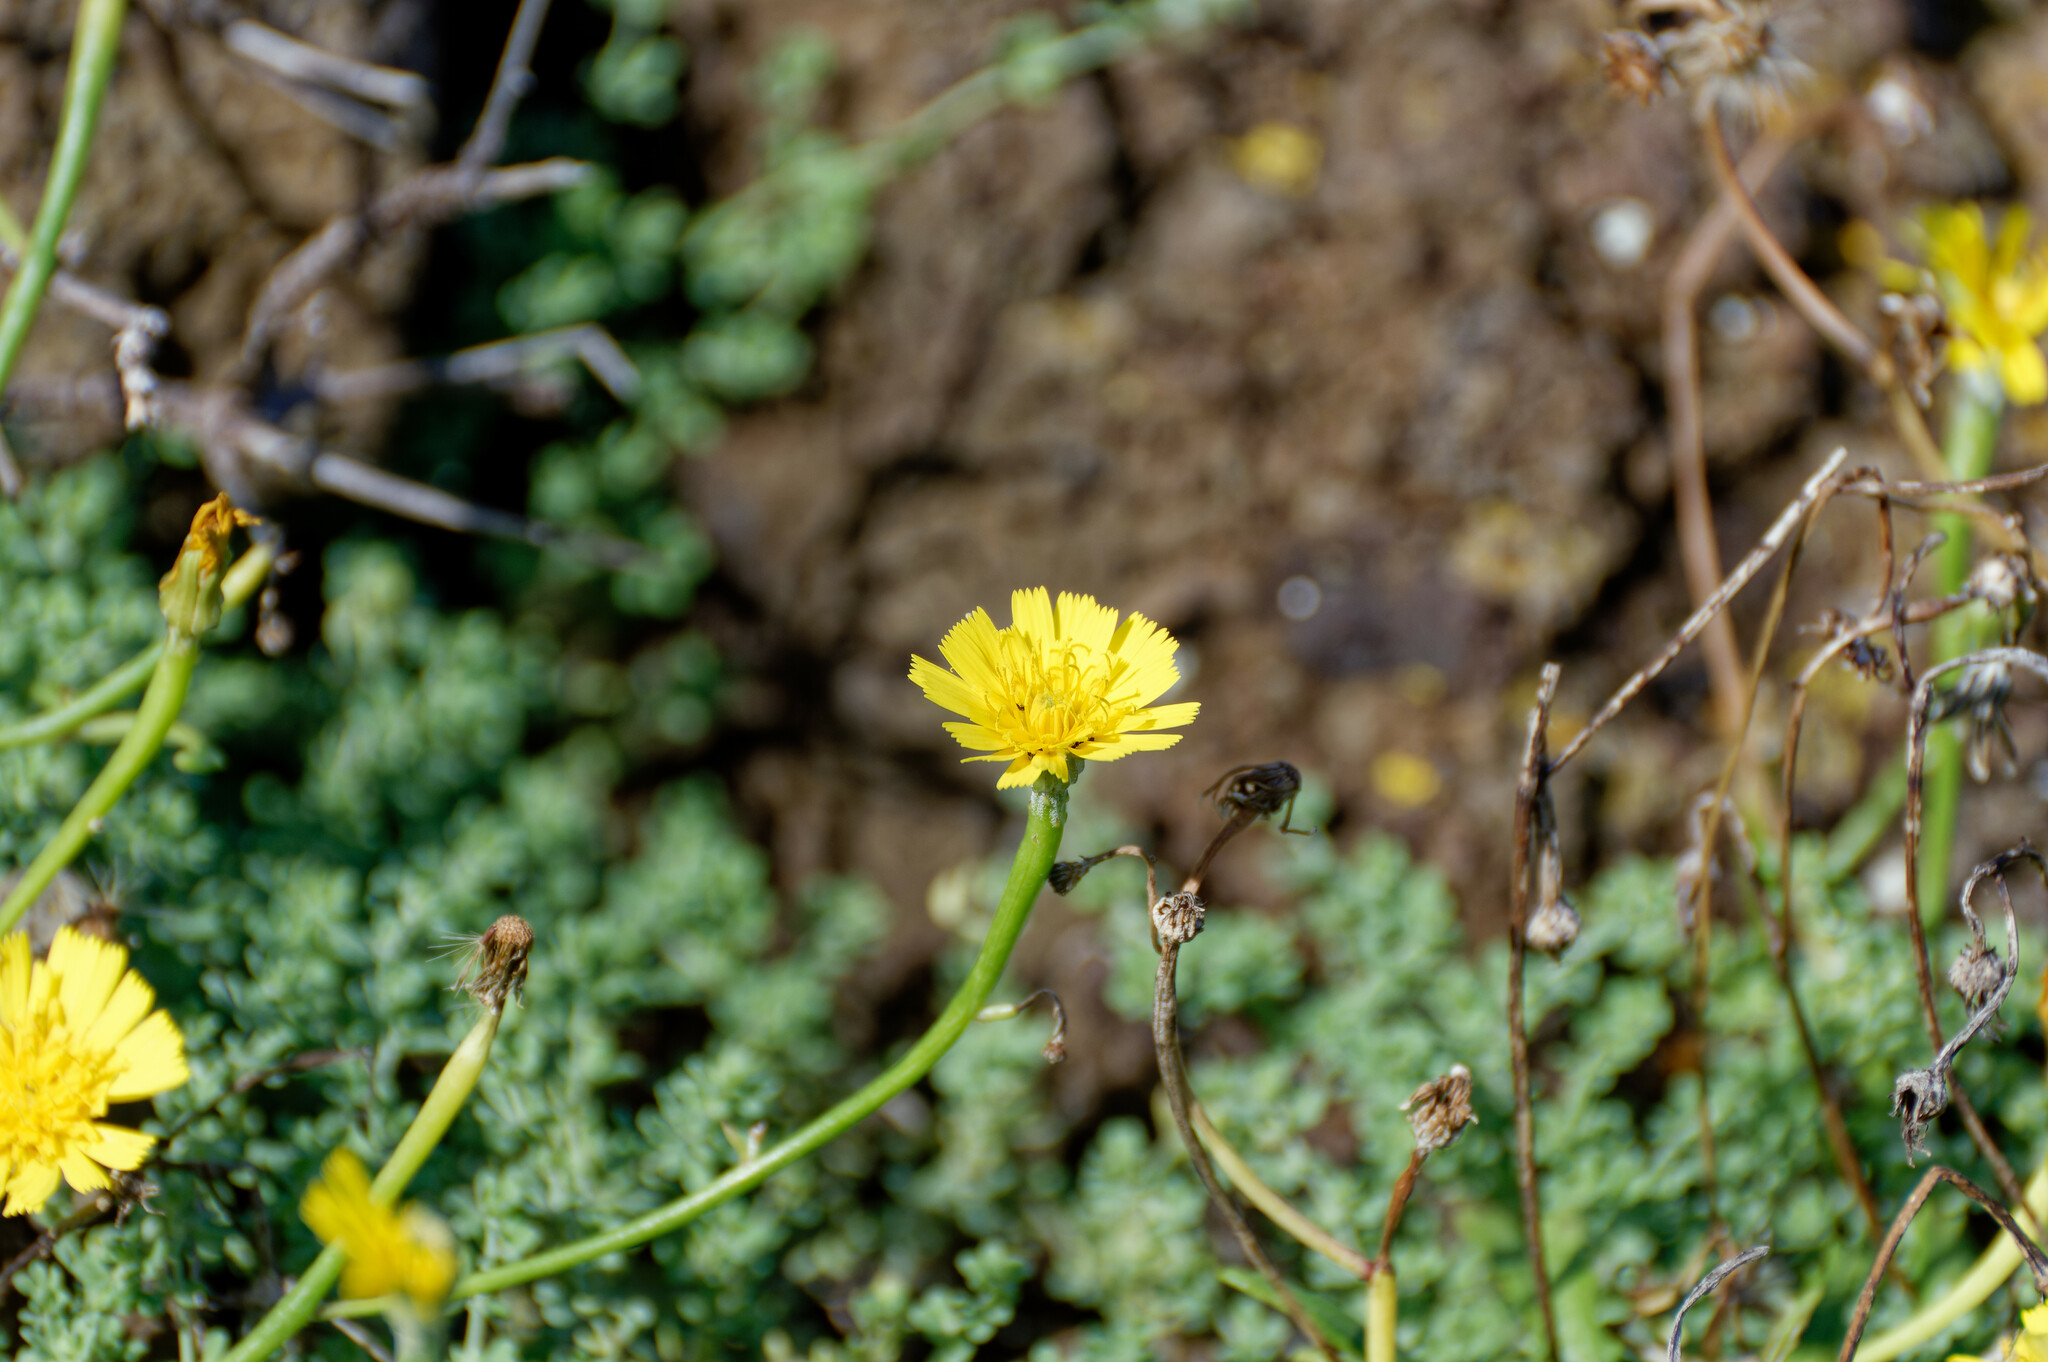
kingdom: Plantae
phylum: Tracheophyta
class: Magnoliopsida
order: Asterales
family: Asteraceae
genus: Tolpis
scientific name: Tolpis succulenta
